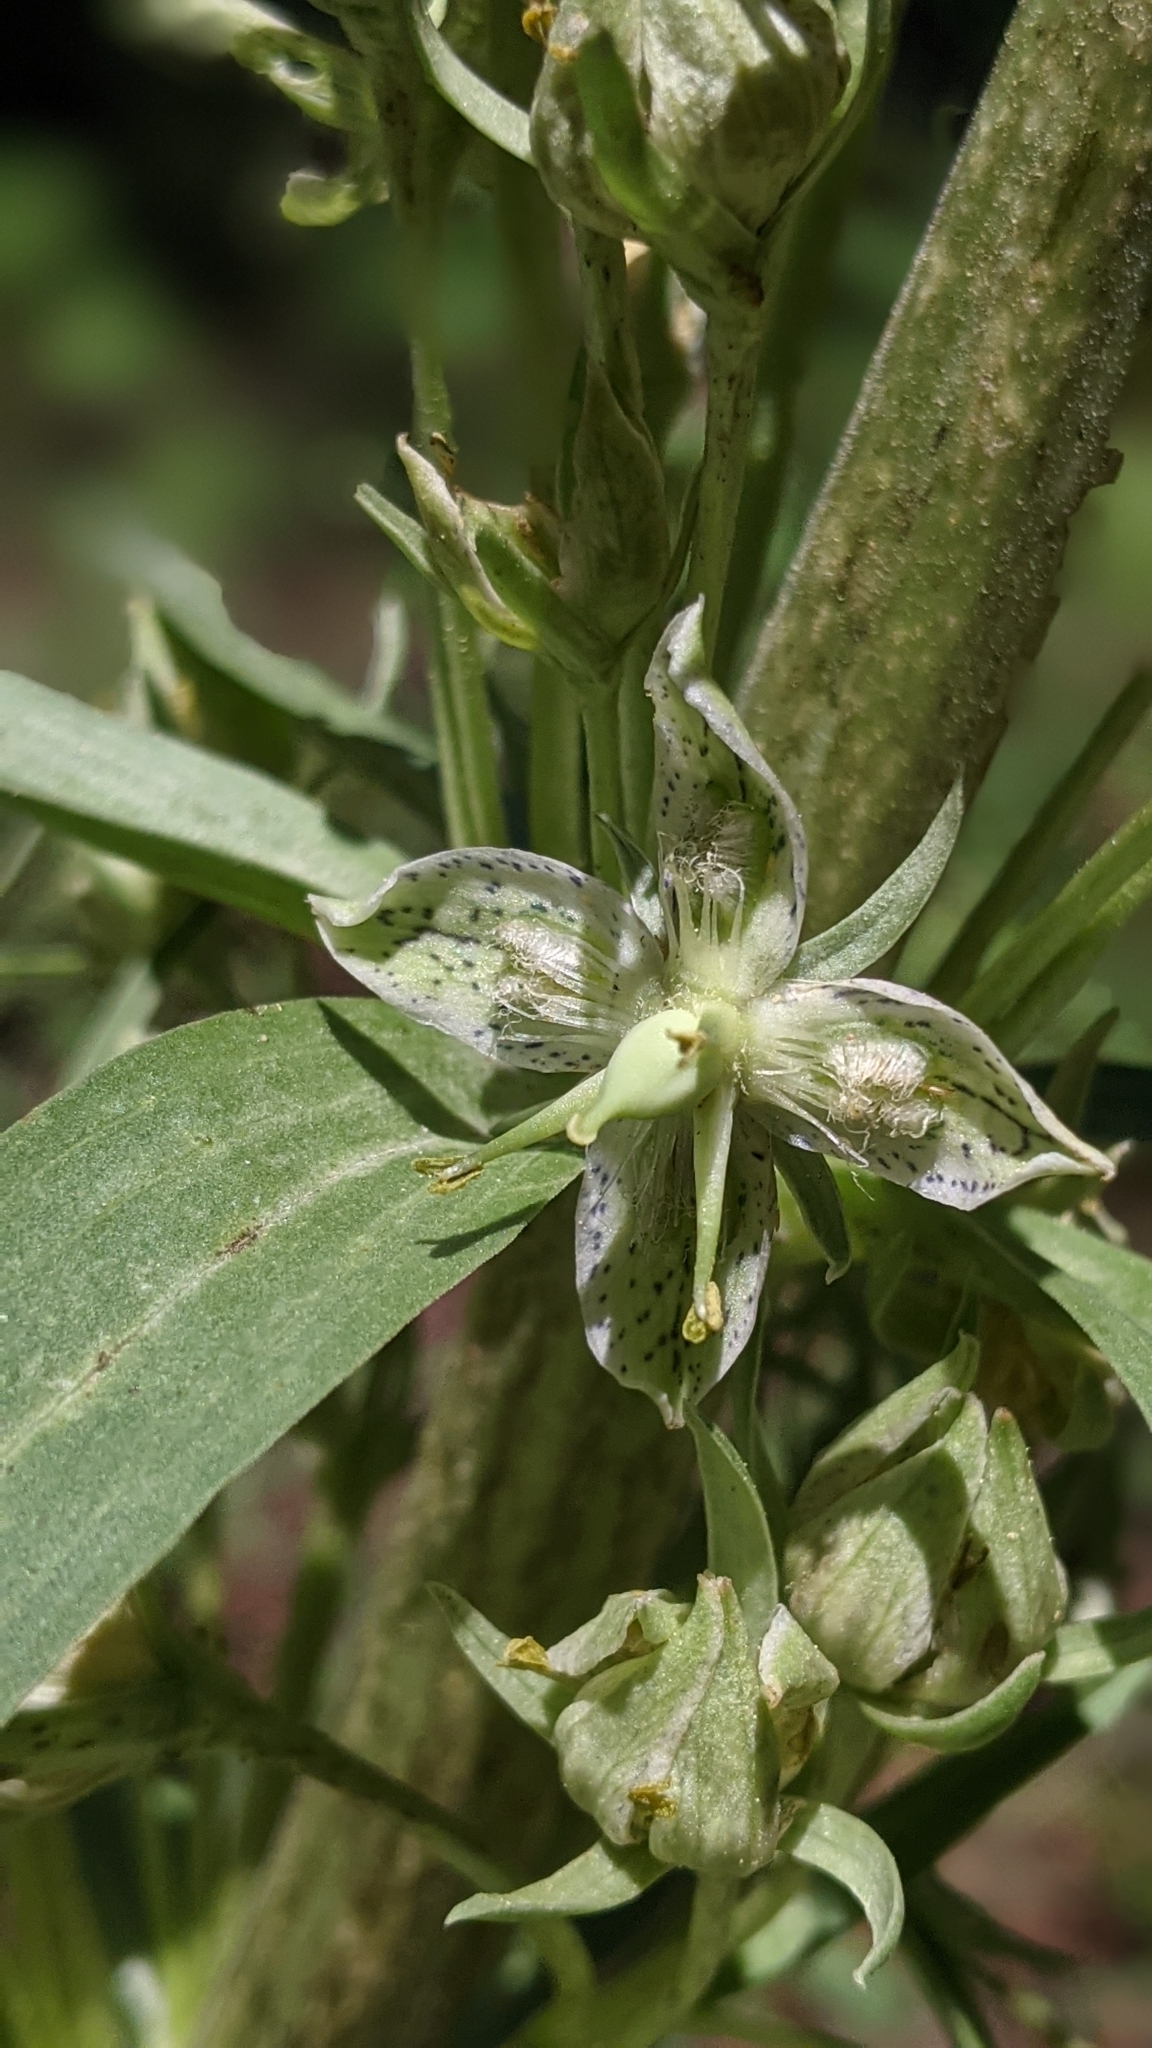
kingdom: Plantae
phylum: Tracheophyta
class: Magnoliopsida
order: Gentianales
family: Gentianaceae
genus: Frasera
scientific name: Frasera speciosa
